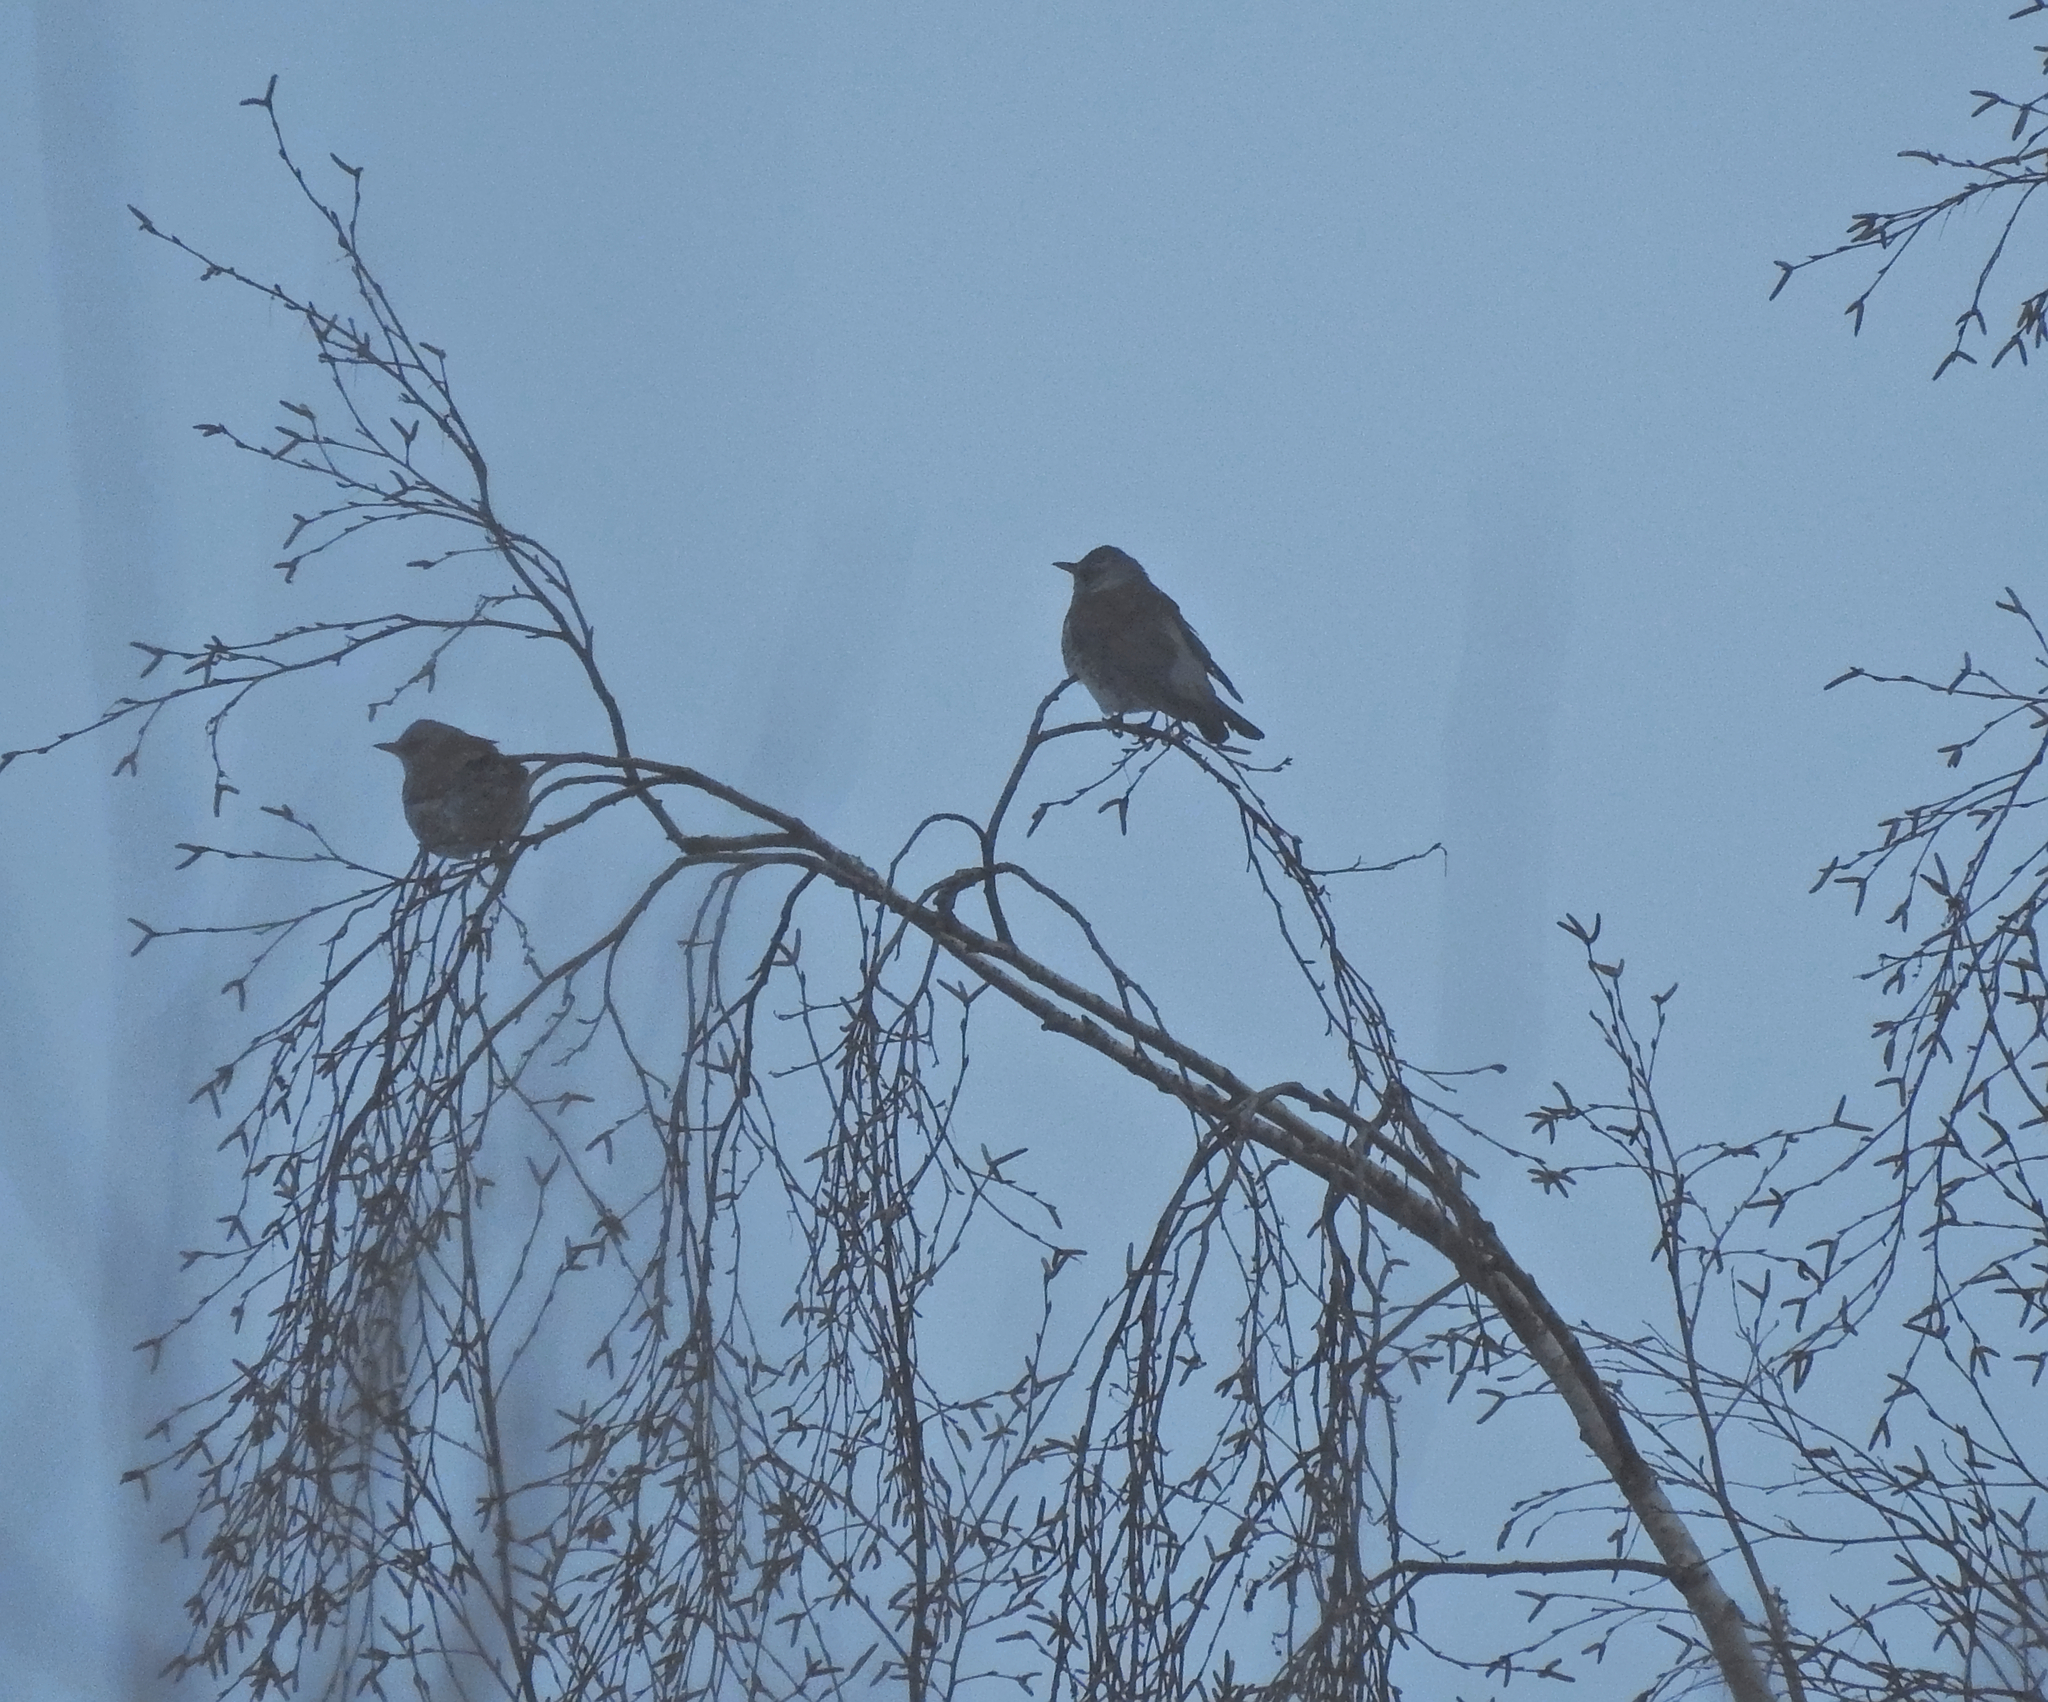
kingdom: Animalia
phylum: Chordata
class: Aves
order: Passeriformes
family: Turdidae
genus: Turdus
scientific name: Turdus pilaris
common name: Fieldfare
